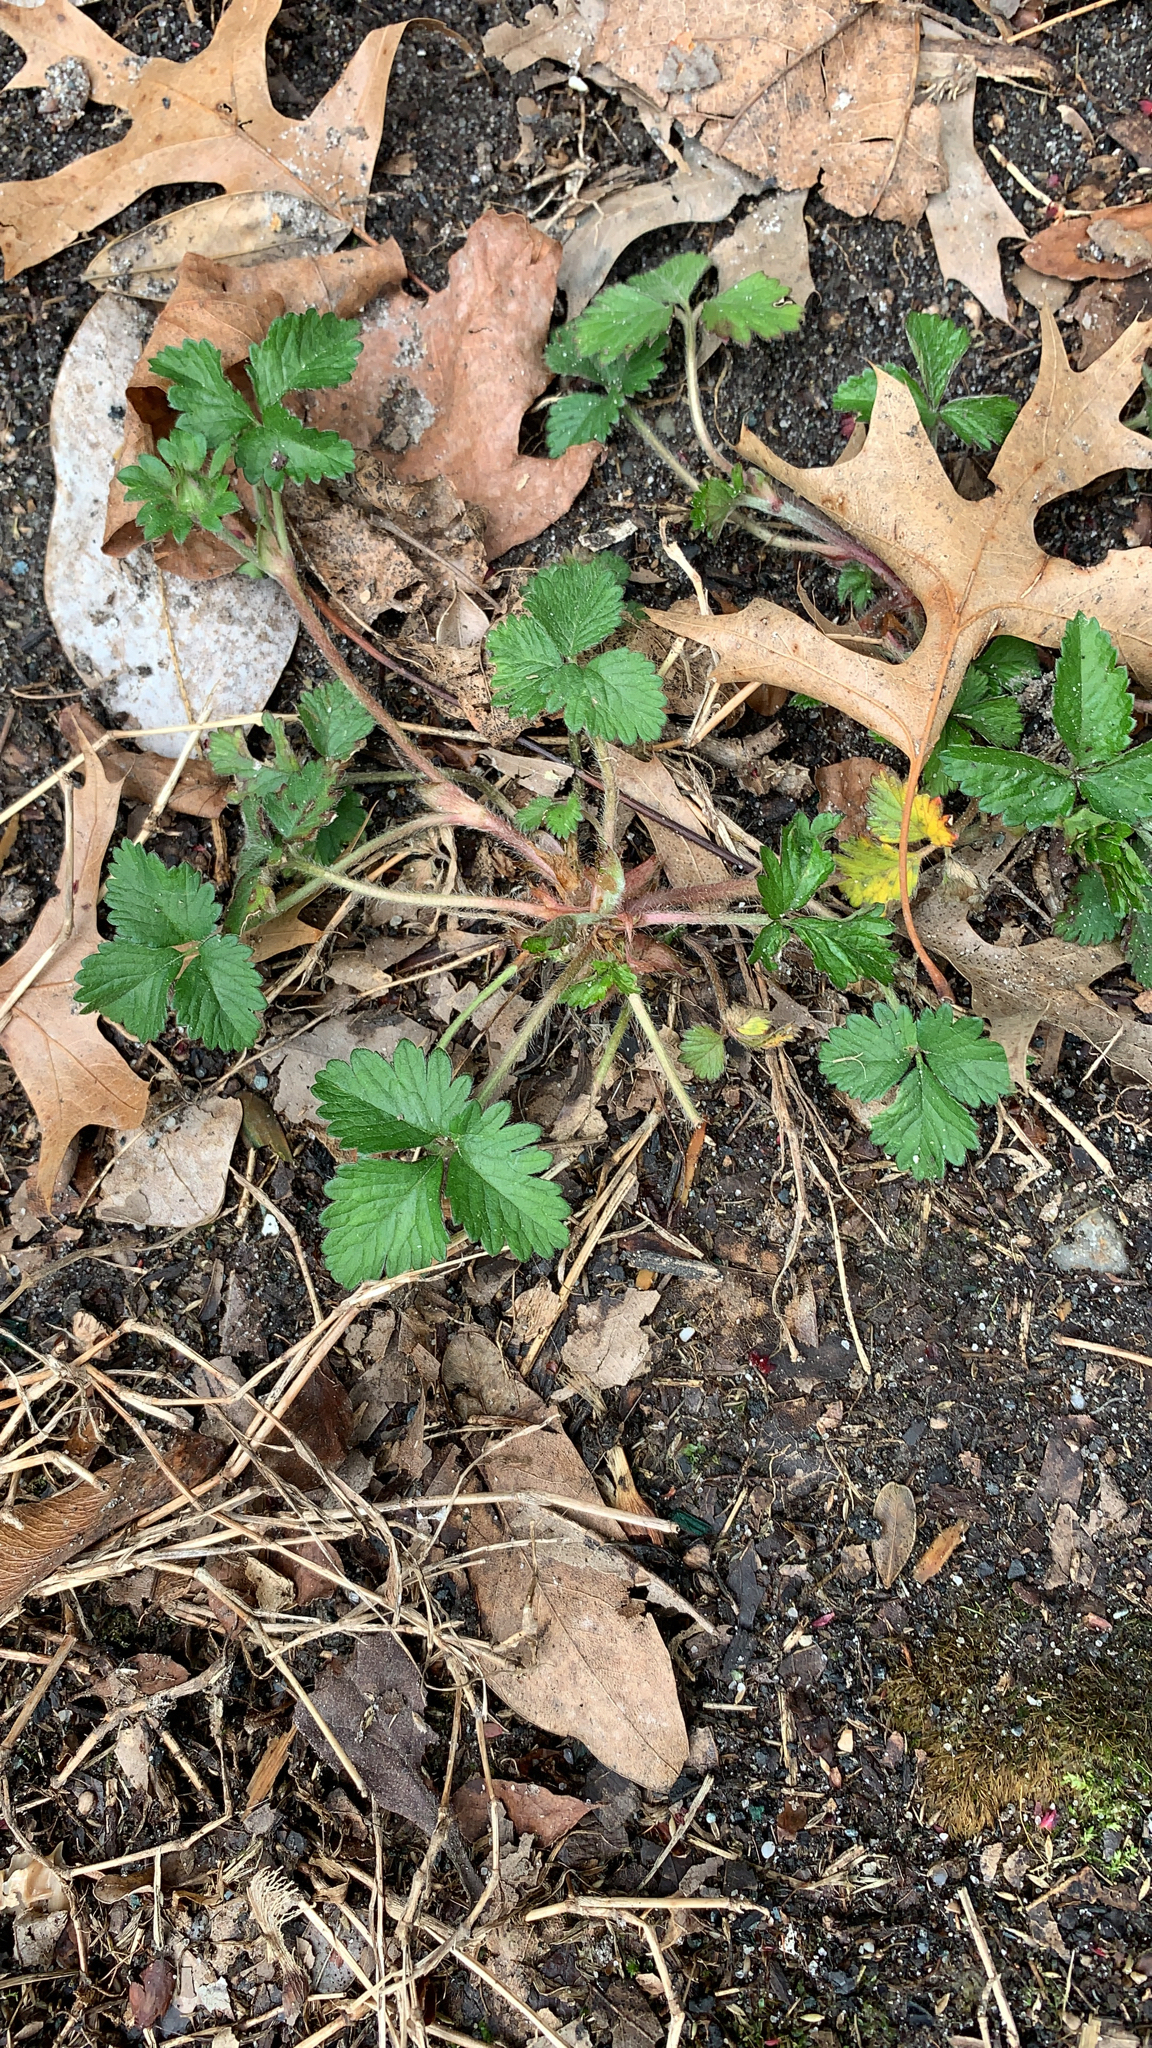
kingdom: Plantae
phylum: Tracheophyta
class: Magnoliopsida
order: Rosales
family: Rosaceae
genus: Potentilla
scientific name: Potentilla indica
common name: Yellow-flowered strawberry
